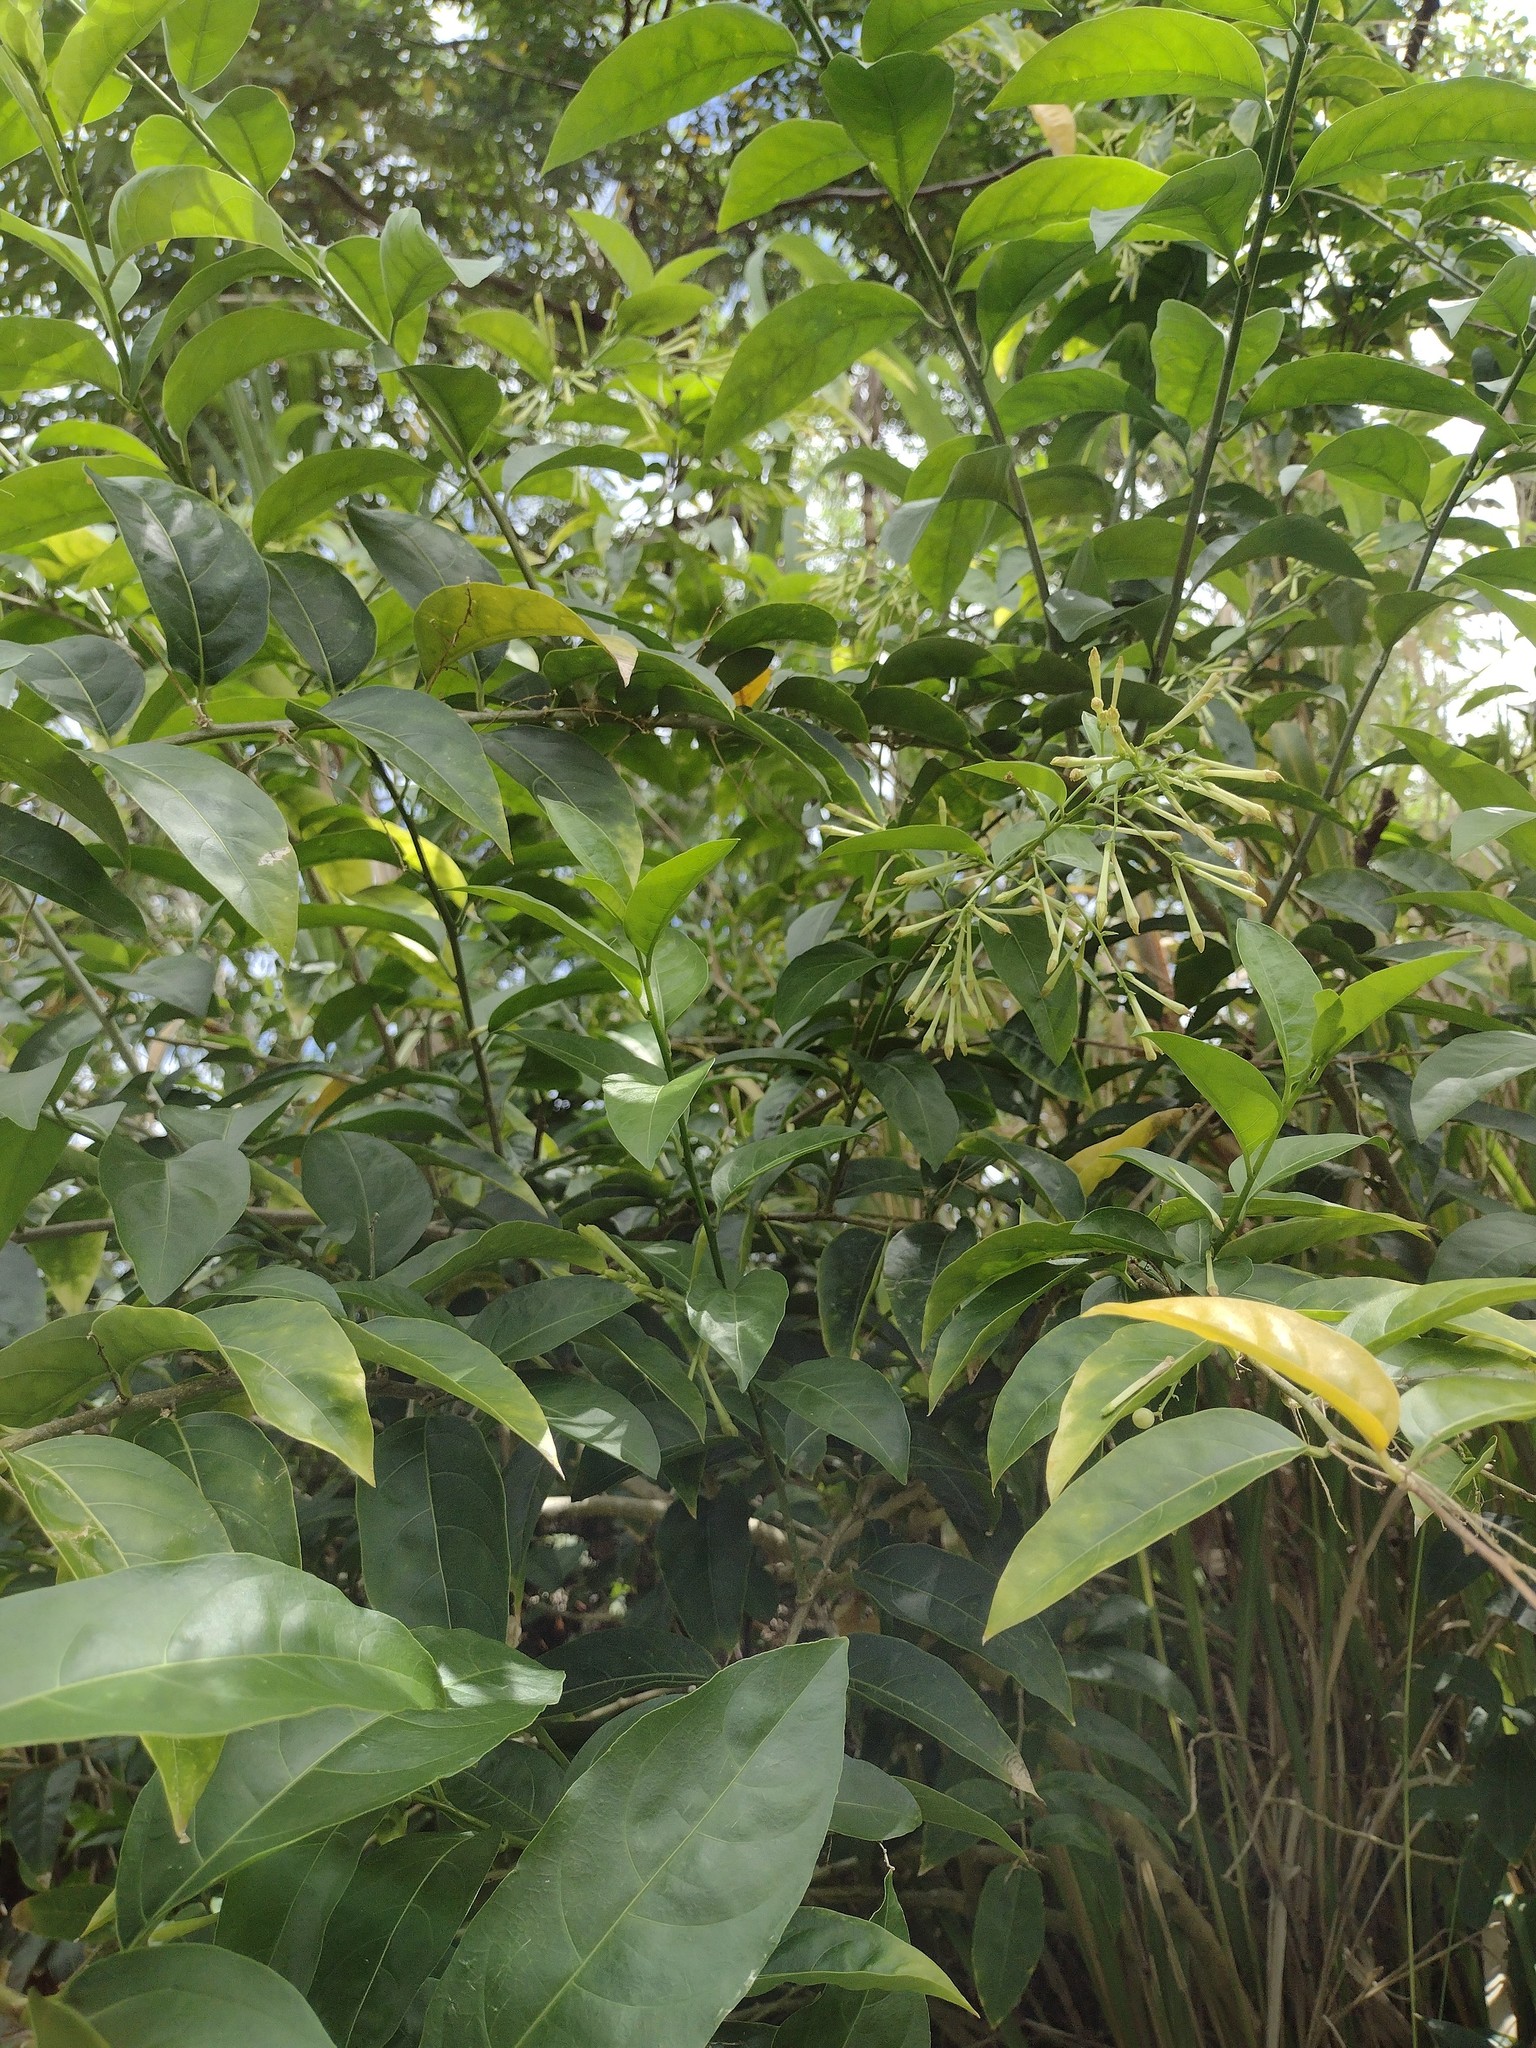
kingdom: Plantae
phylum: Tracheophyta
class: Magnoliopsida
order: Solanales
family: Solanaceae
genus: Cestrum
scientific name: Cestrum nocturnum
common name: Night jessamine
